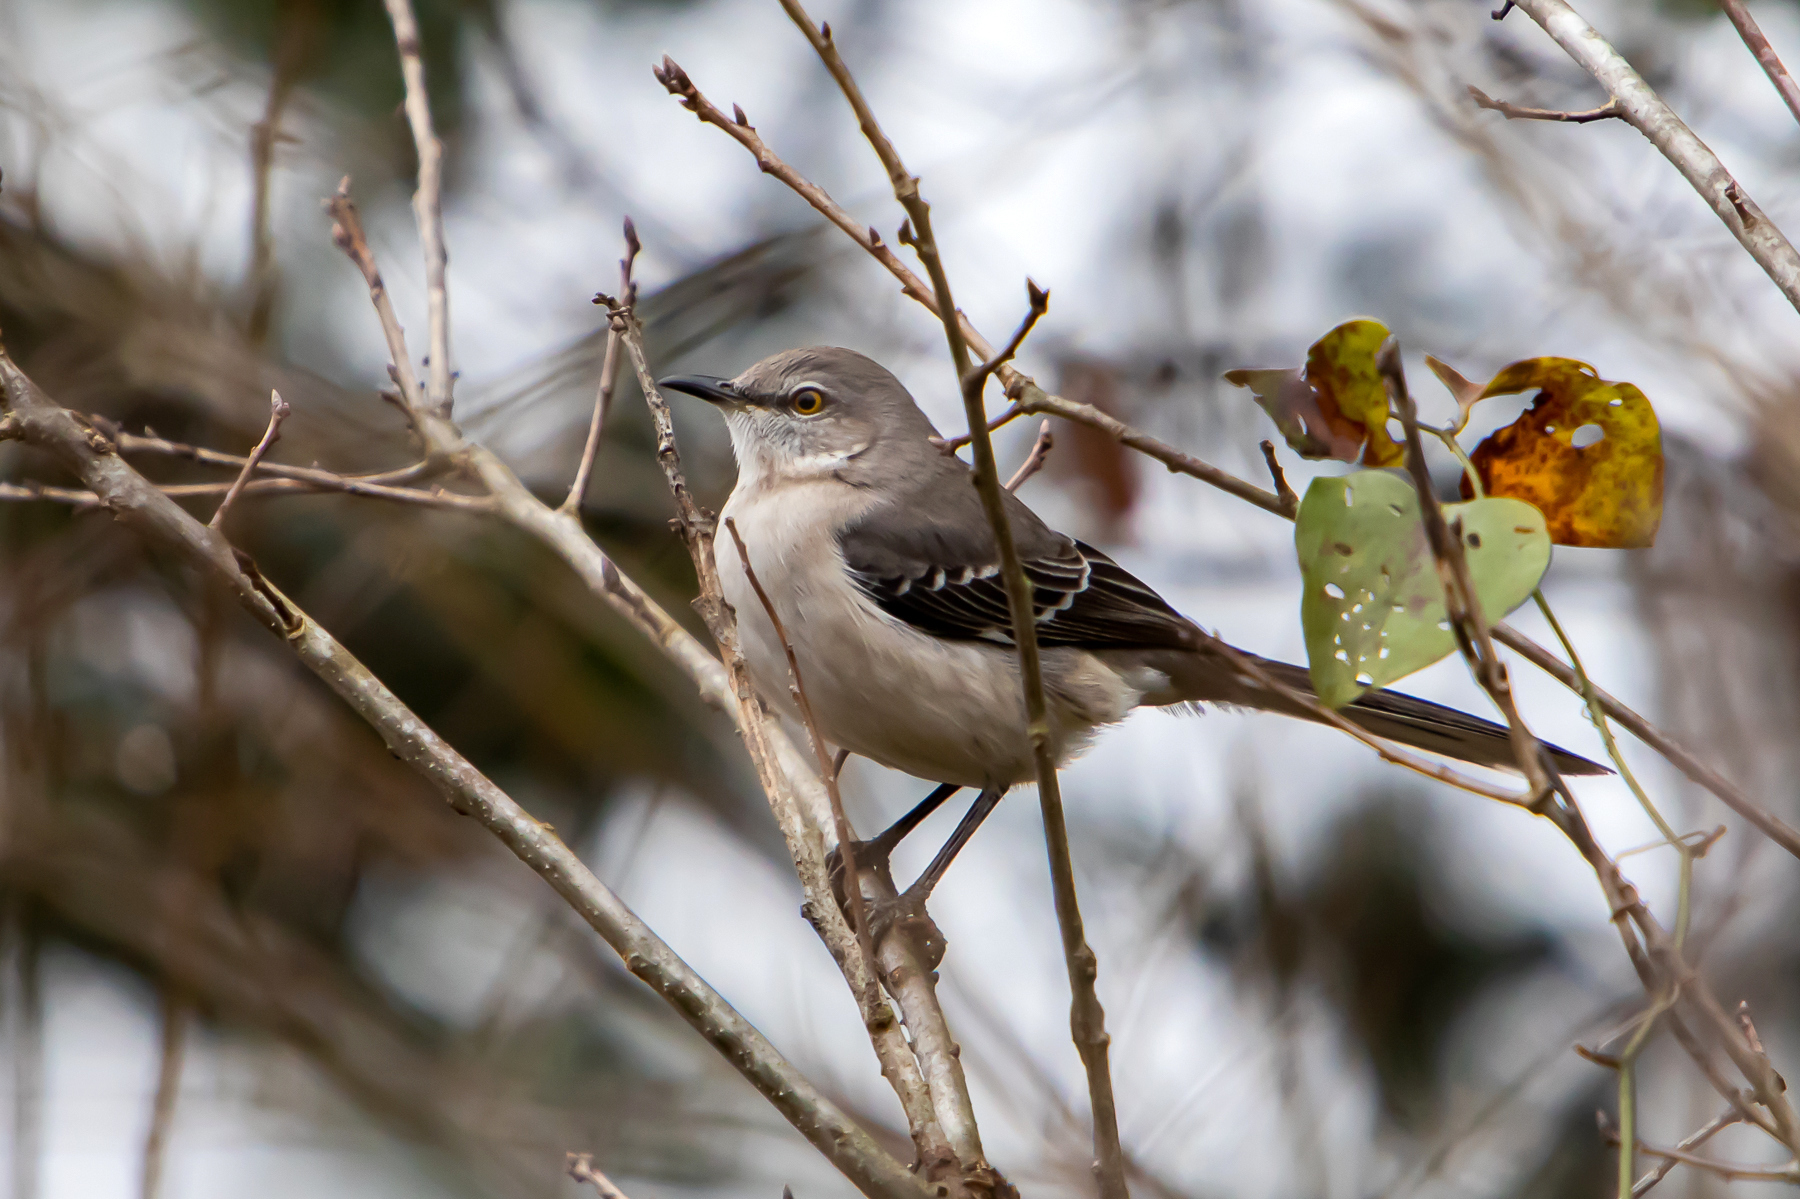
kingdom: Animalia
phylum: Chordata
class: Aves
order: Passeriformes
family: Mimidae
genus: Mimus
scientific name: Mimus polyglottos
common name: Northern mockingbird
